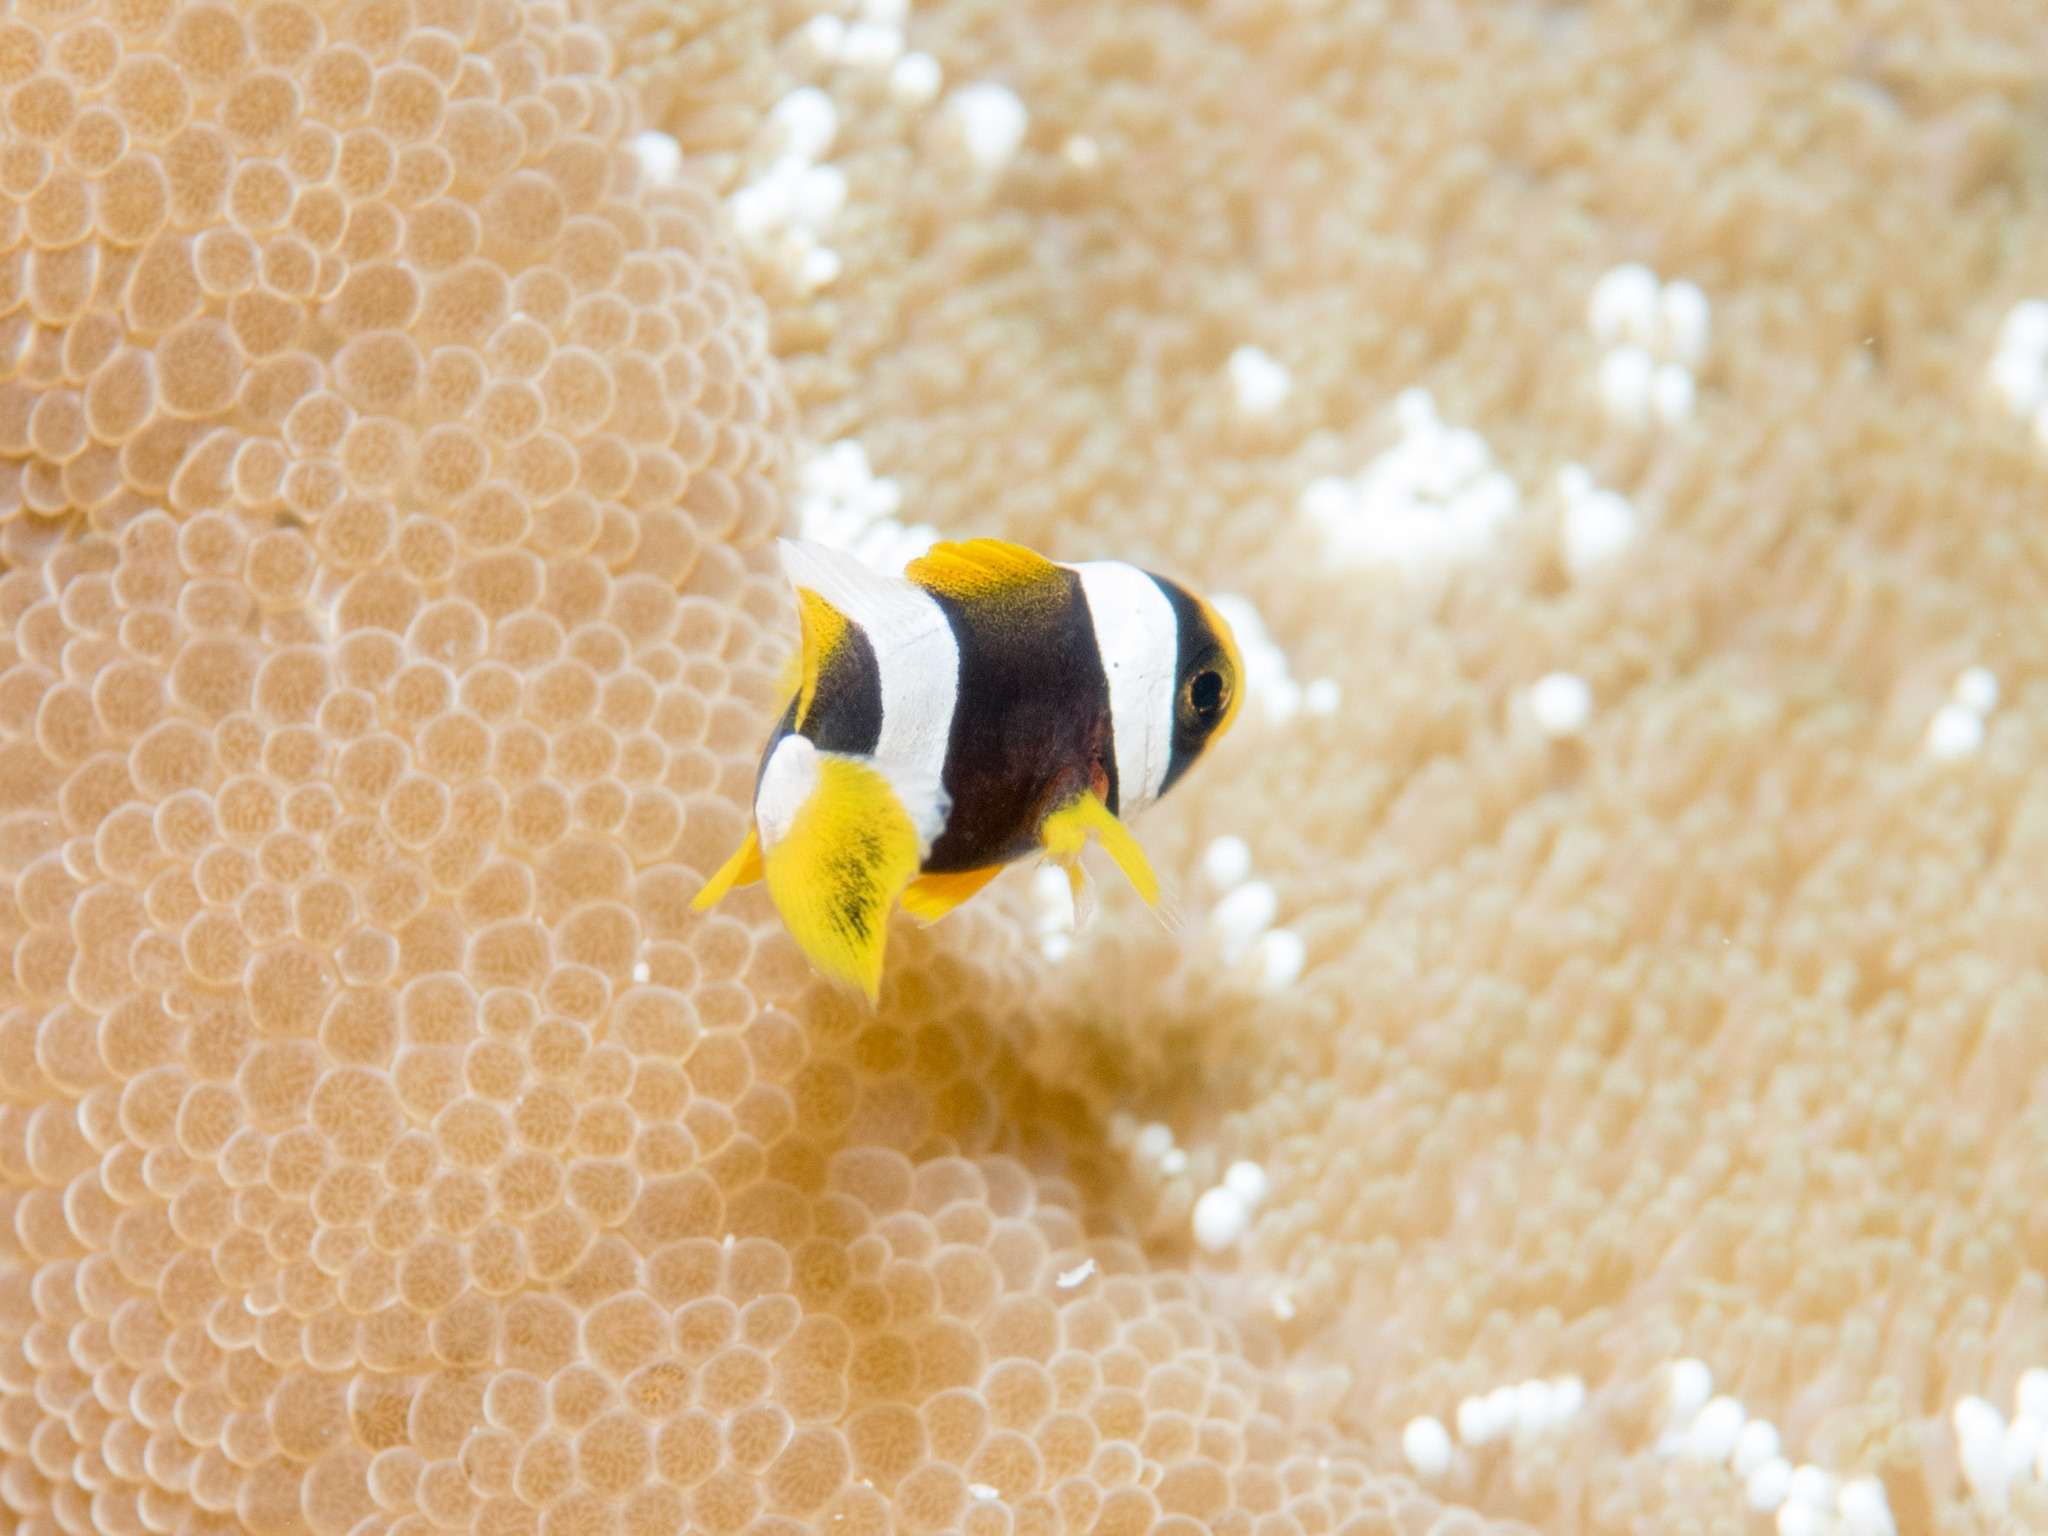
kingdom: Animalia
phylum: Chordata
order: Perciformes
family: Pomacentridae
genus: Amphiprion
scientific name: Amphiprion clarkii
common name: Clark's anemonefish
